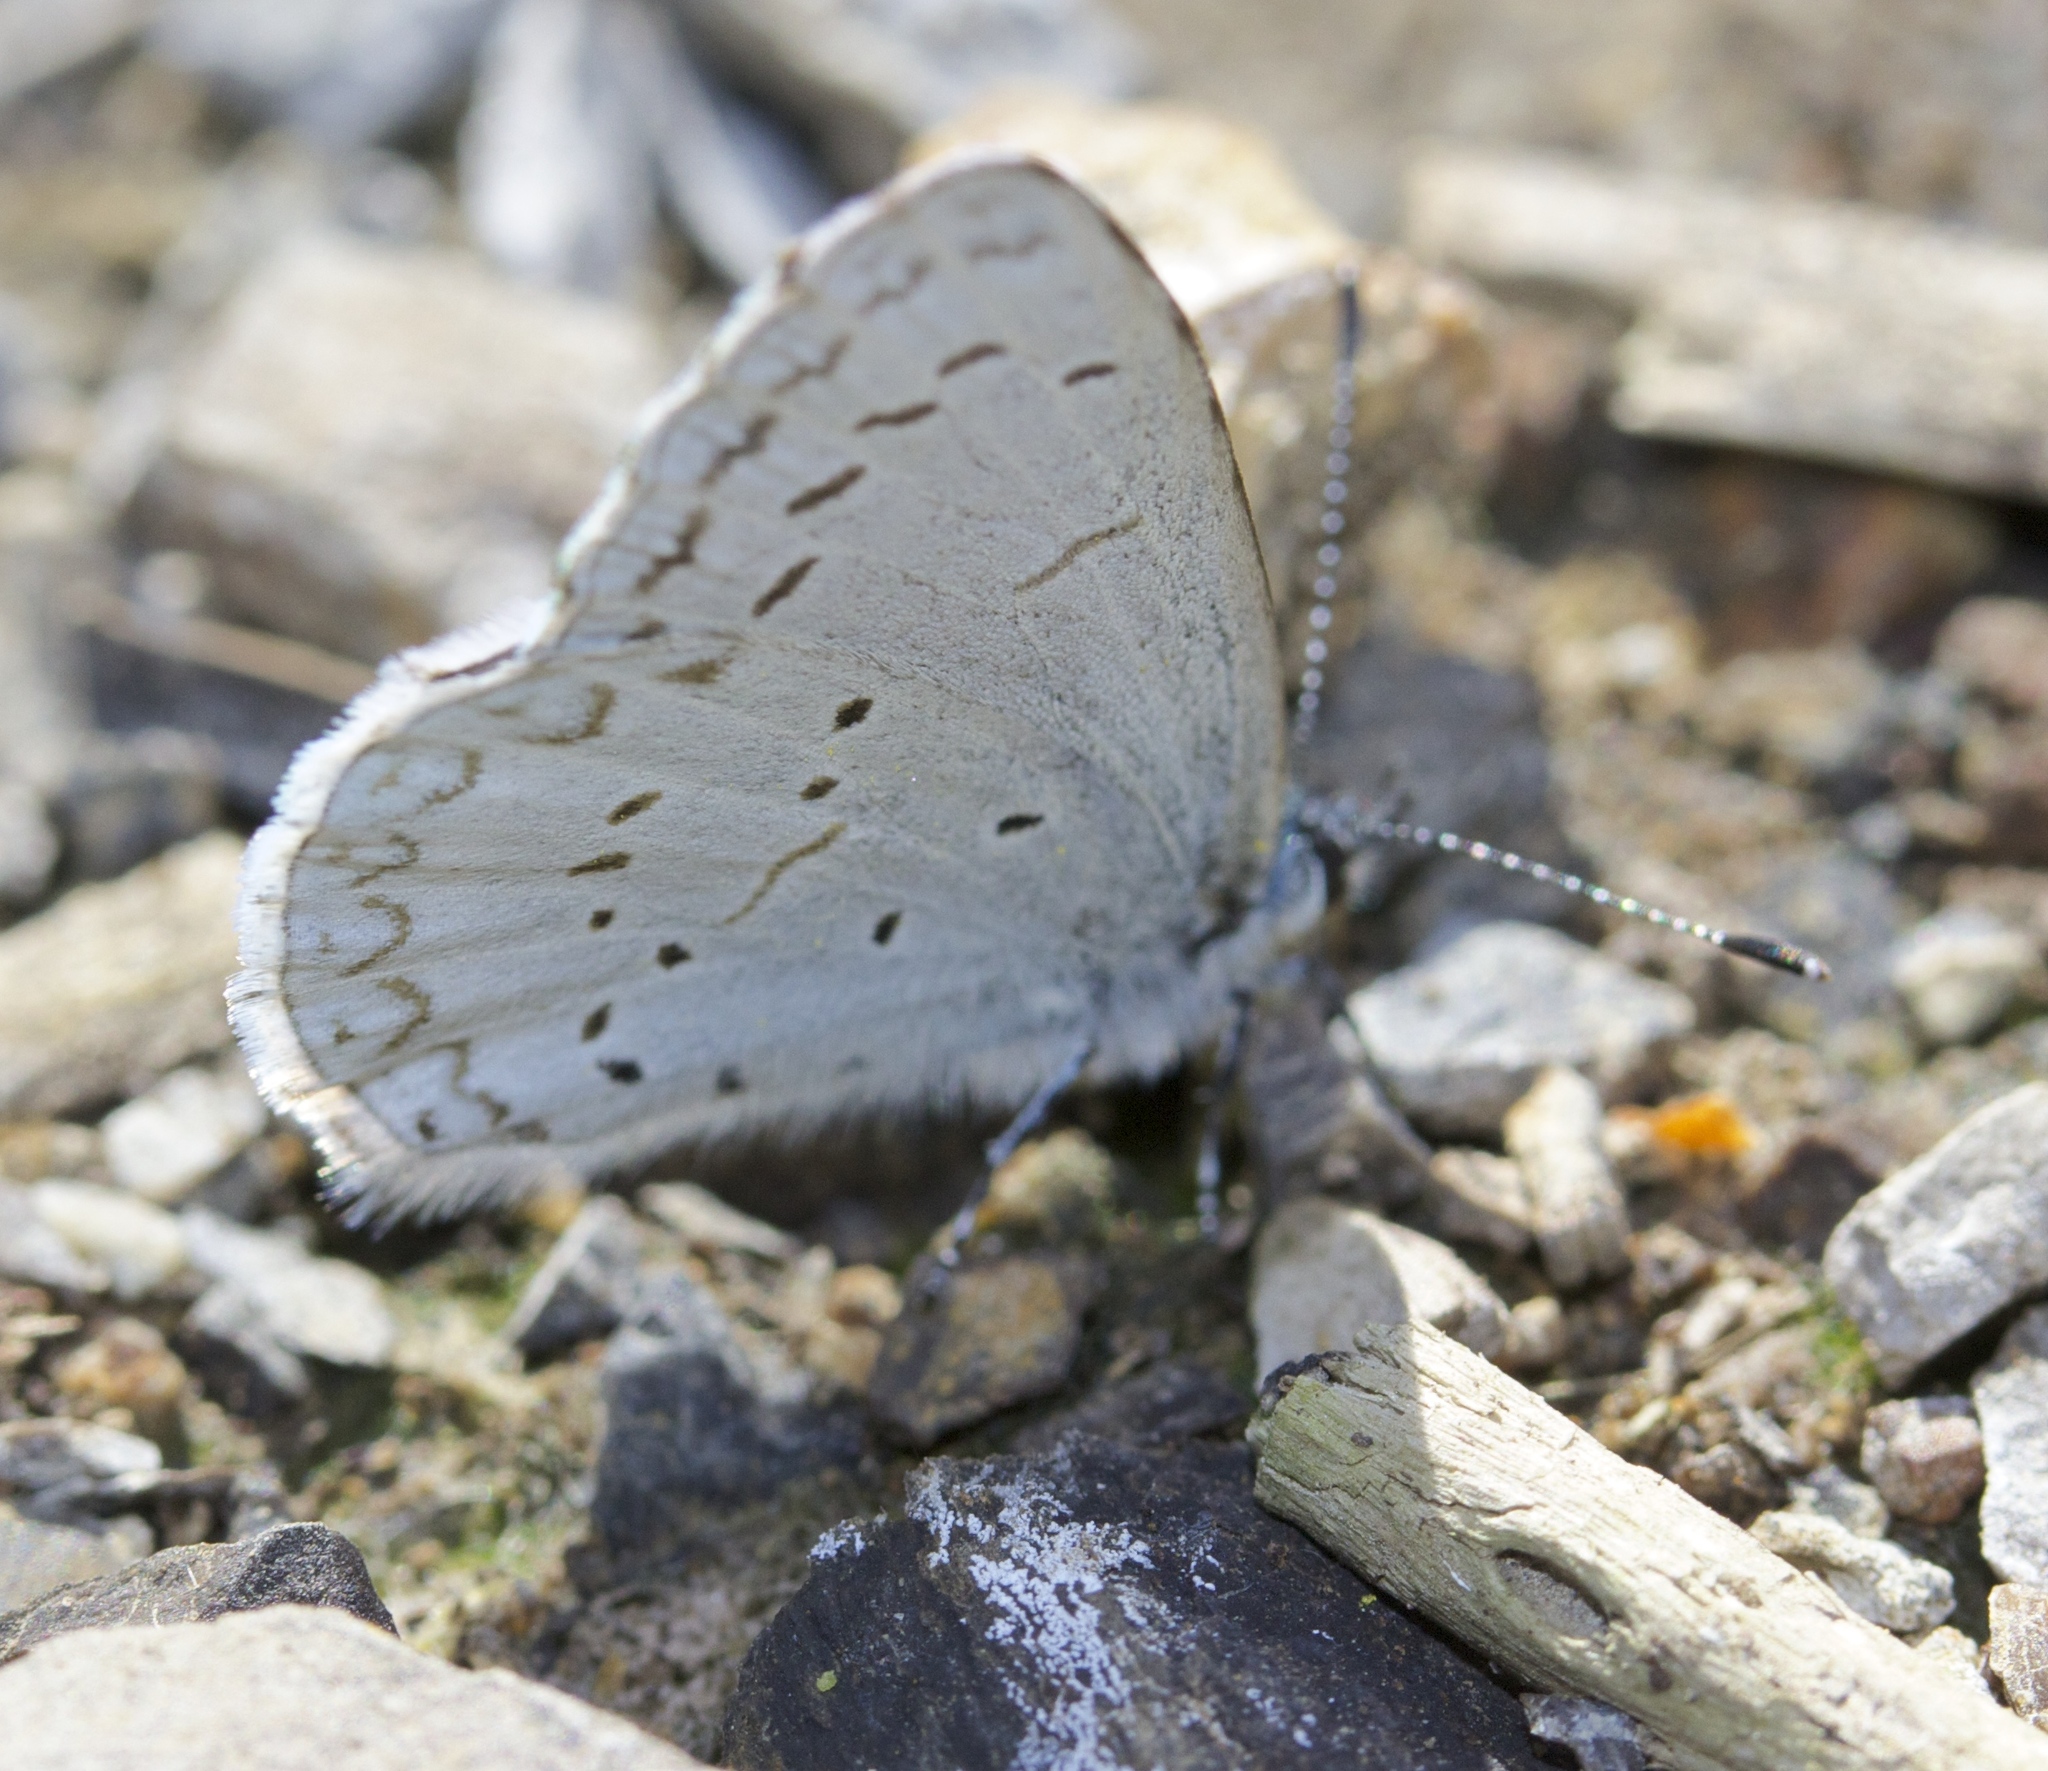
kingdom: Animalia
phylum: Arthropoda
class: Insecta
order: Lepidoptera
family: Lycaenidae
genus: Celastrina
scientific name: Celastrina ladon
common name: Spring azure
